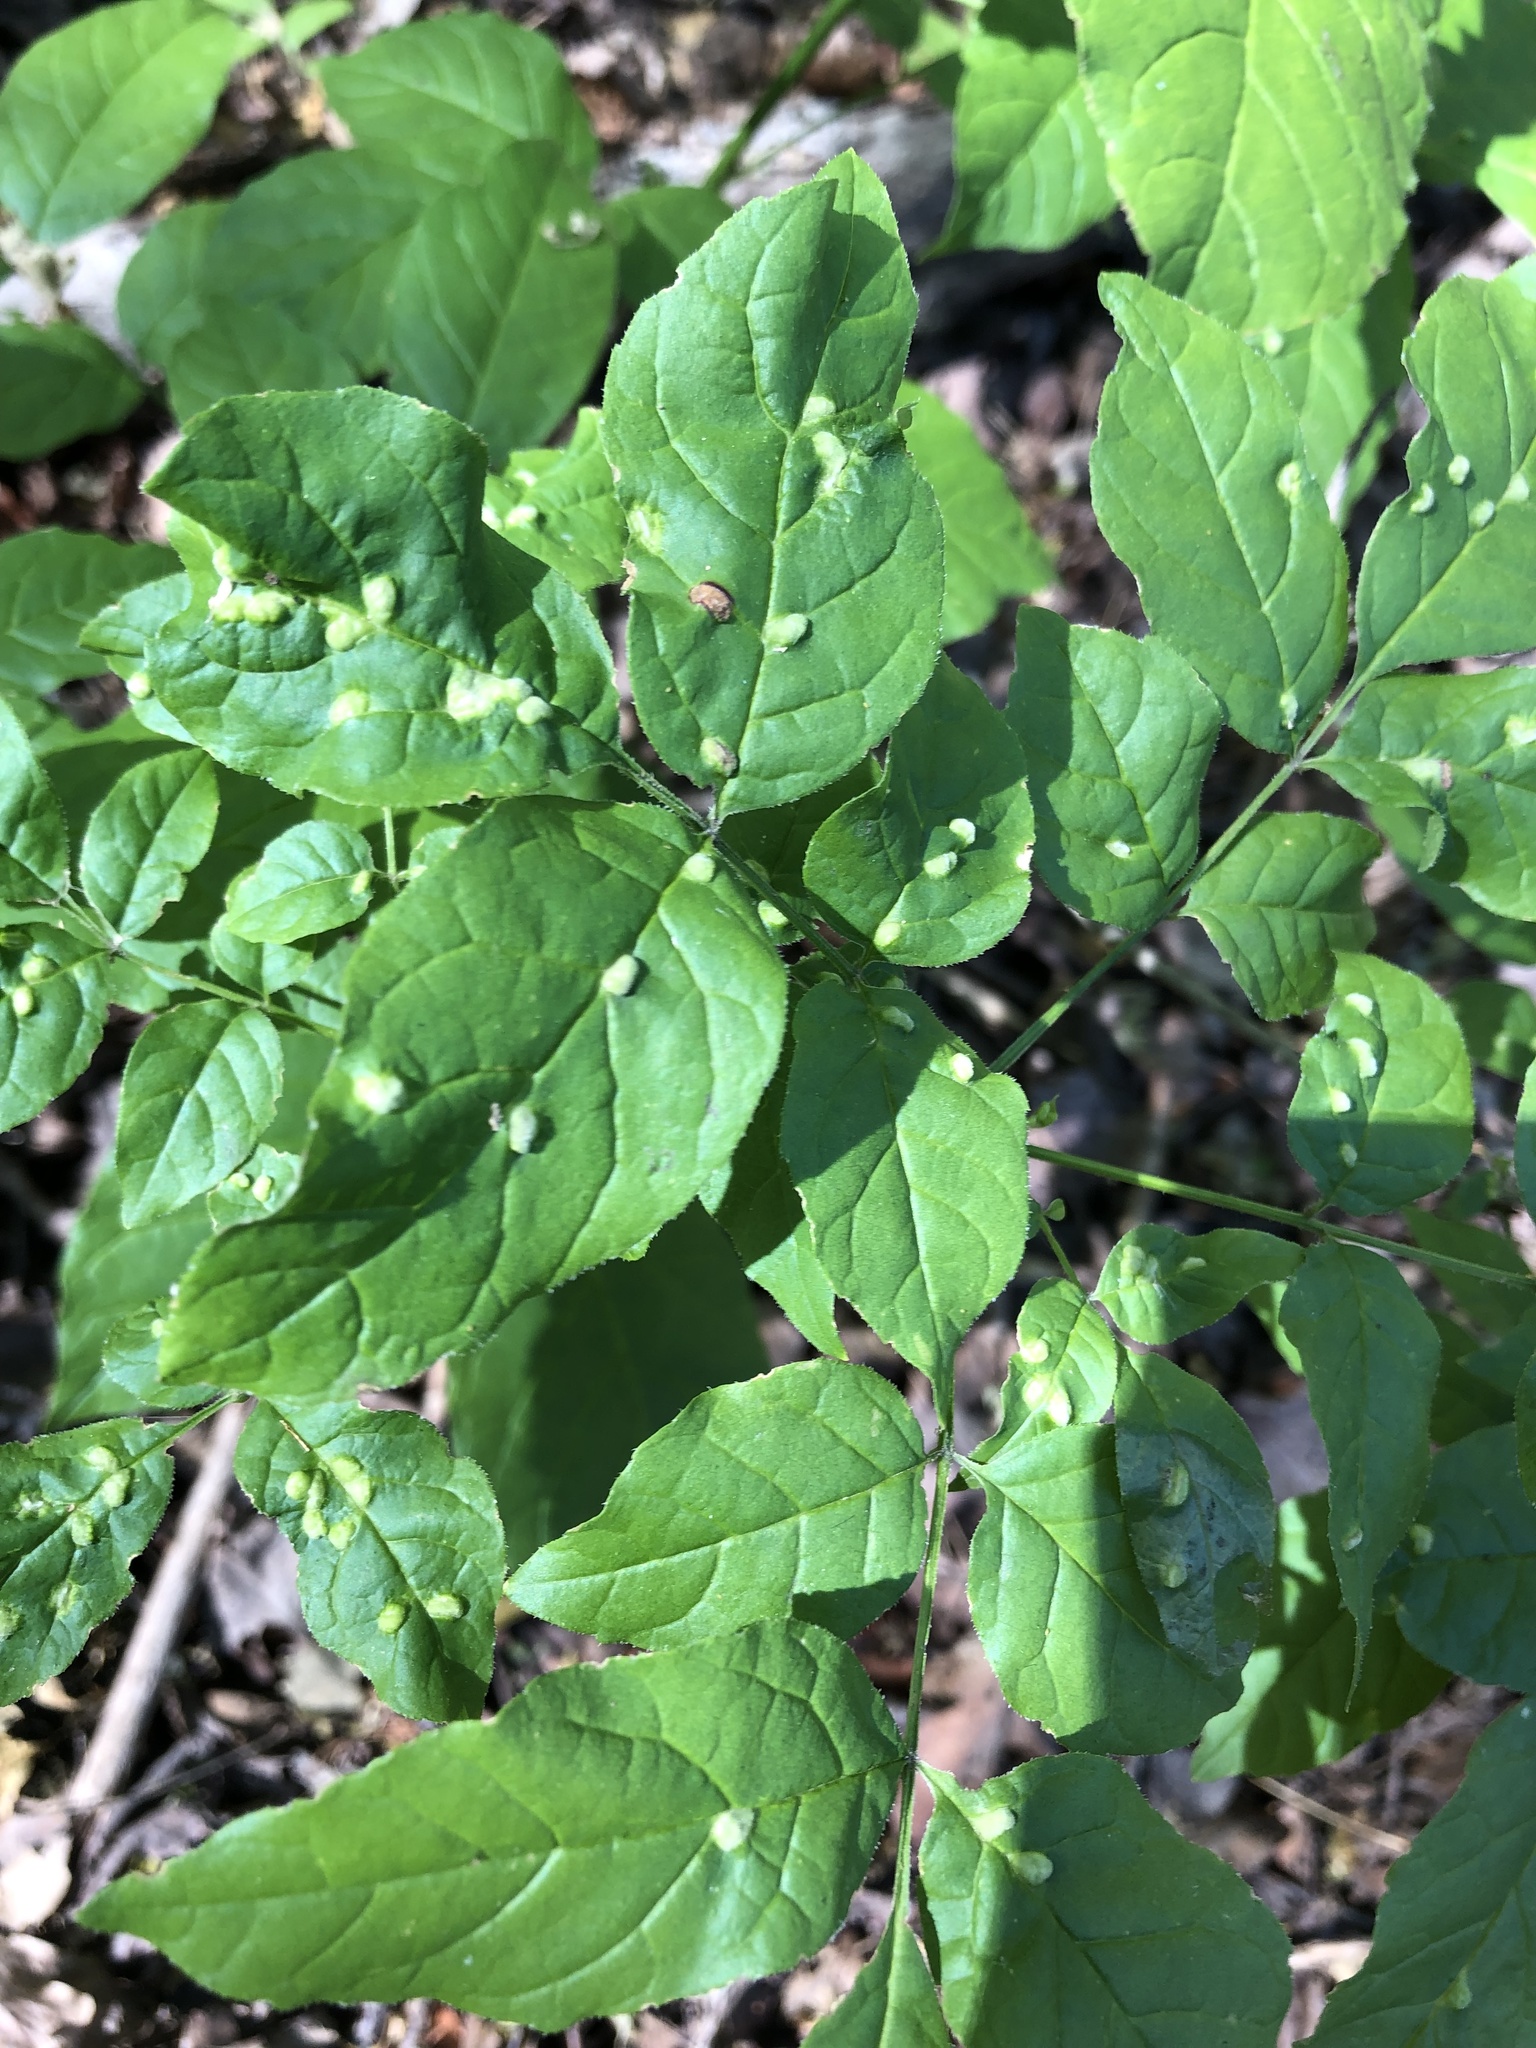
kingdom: Animalia
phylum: Arthropoda
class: Arachnida
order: Trombidiformes
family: Eriophyidae
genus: Aceria
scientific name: Aceria fraxinicola
